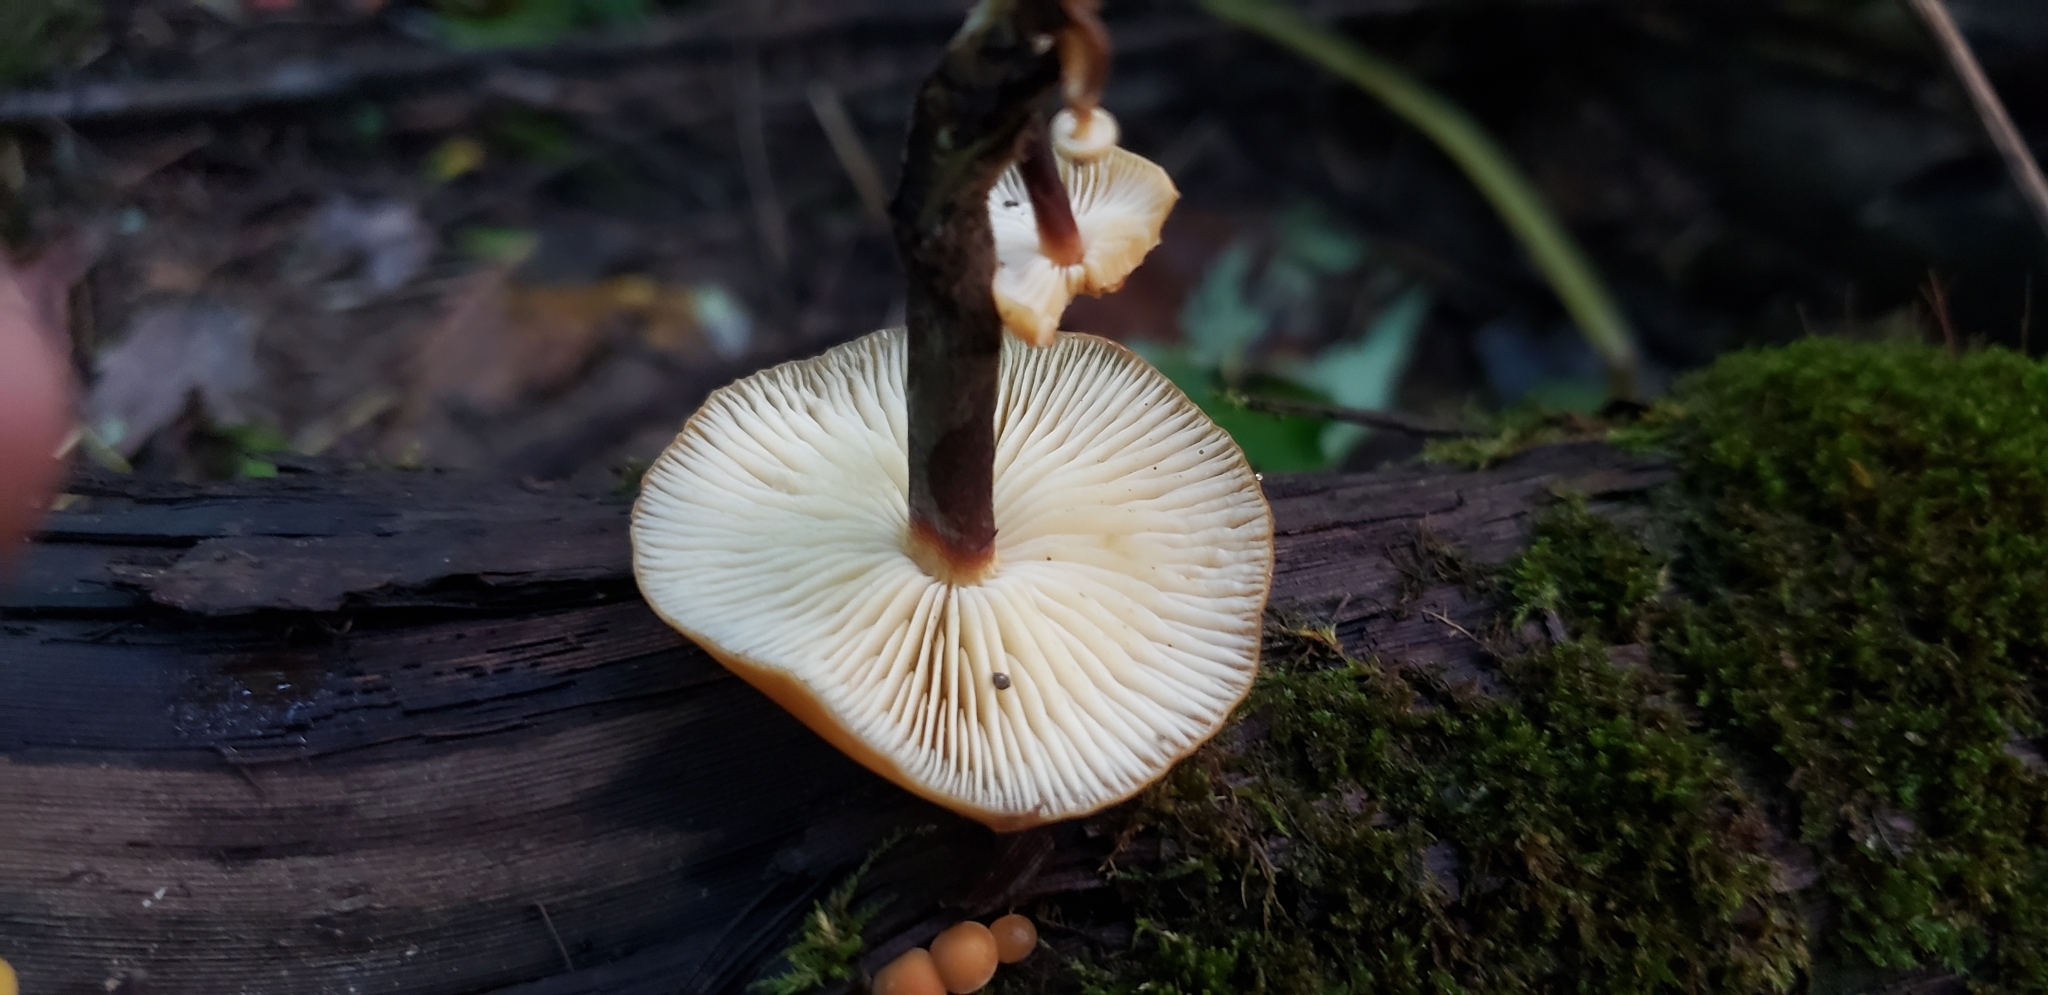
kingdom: Fungi
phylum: Basidiomycota
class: Agaricomycetes
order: Agaricales
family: Physalacriaceae
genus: Flammulina
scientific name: Flammulina velutipes
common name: Velvet shank
